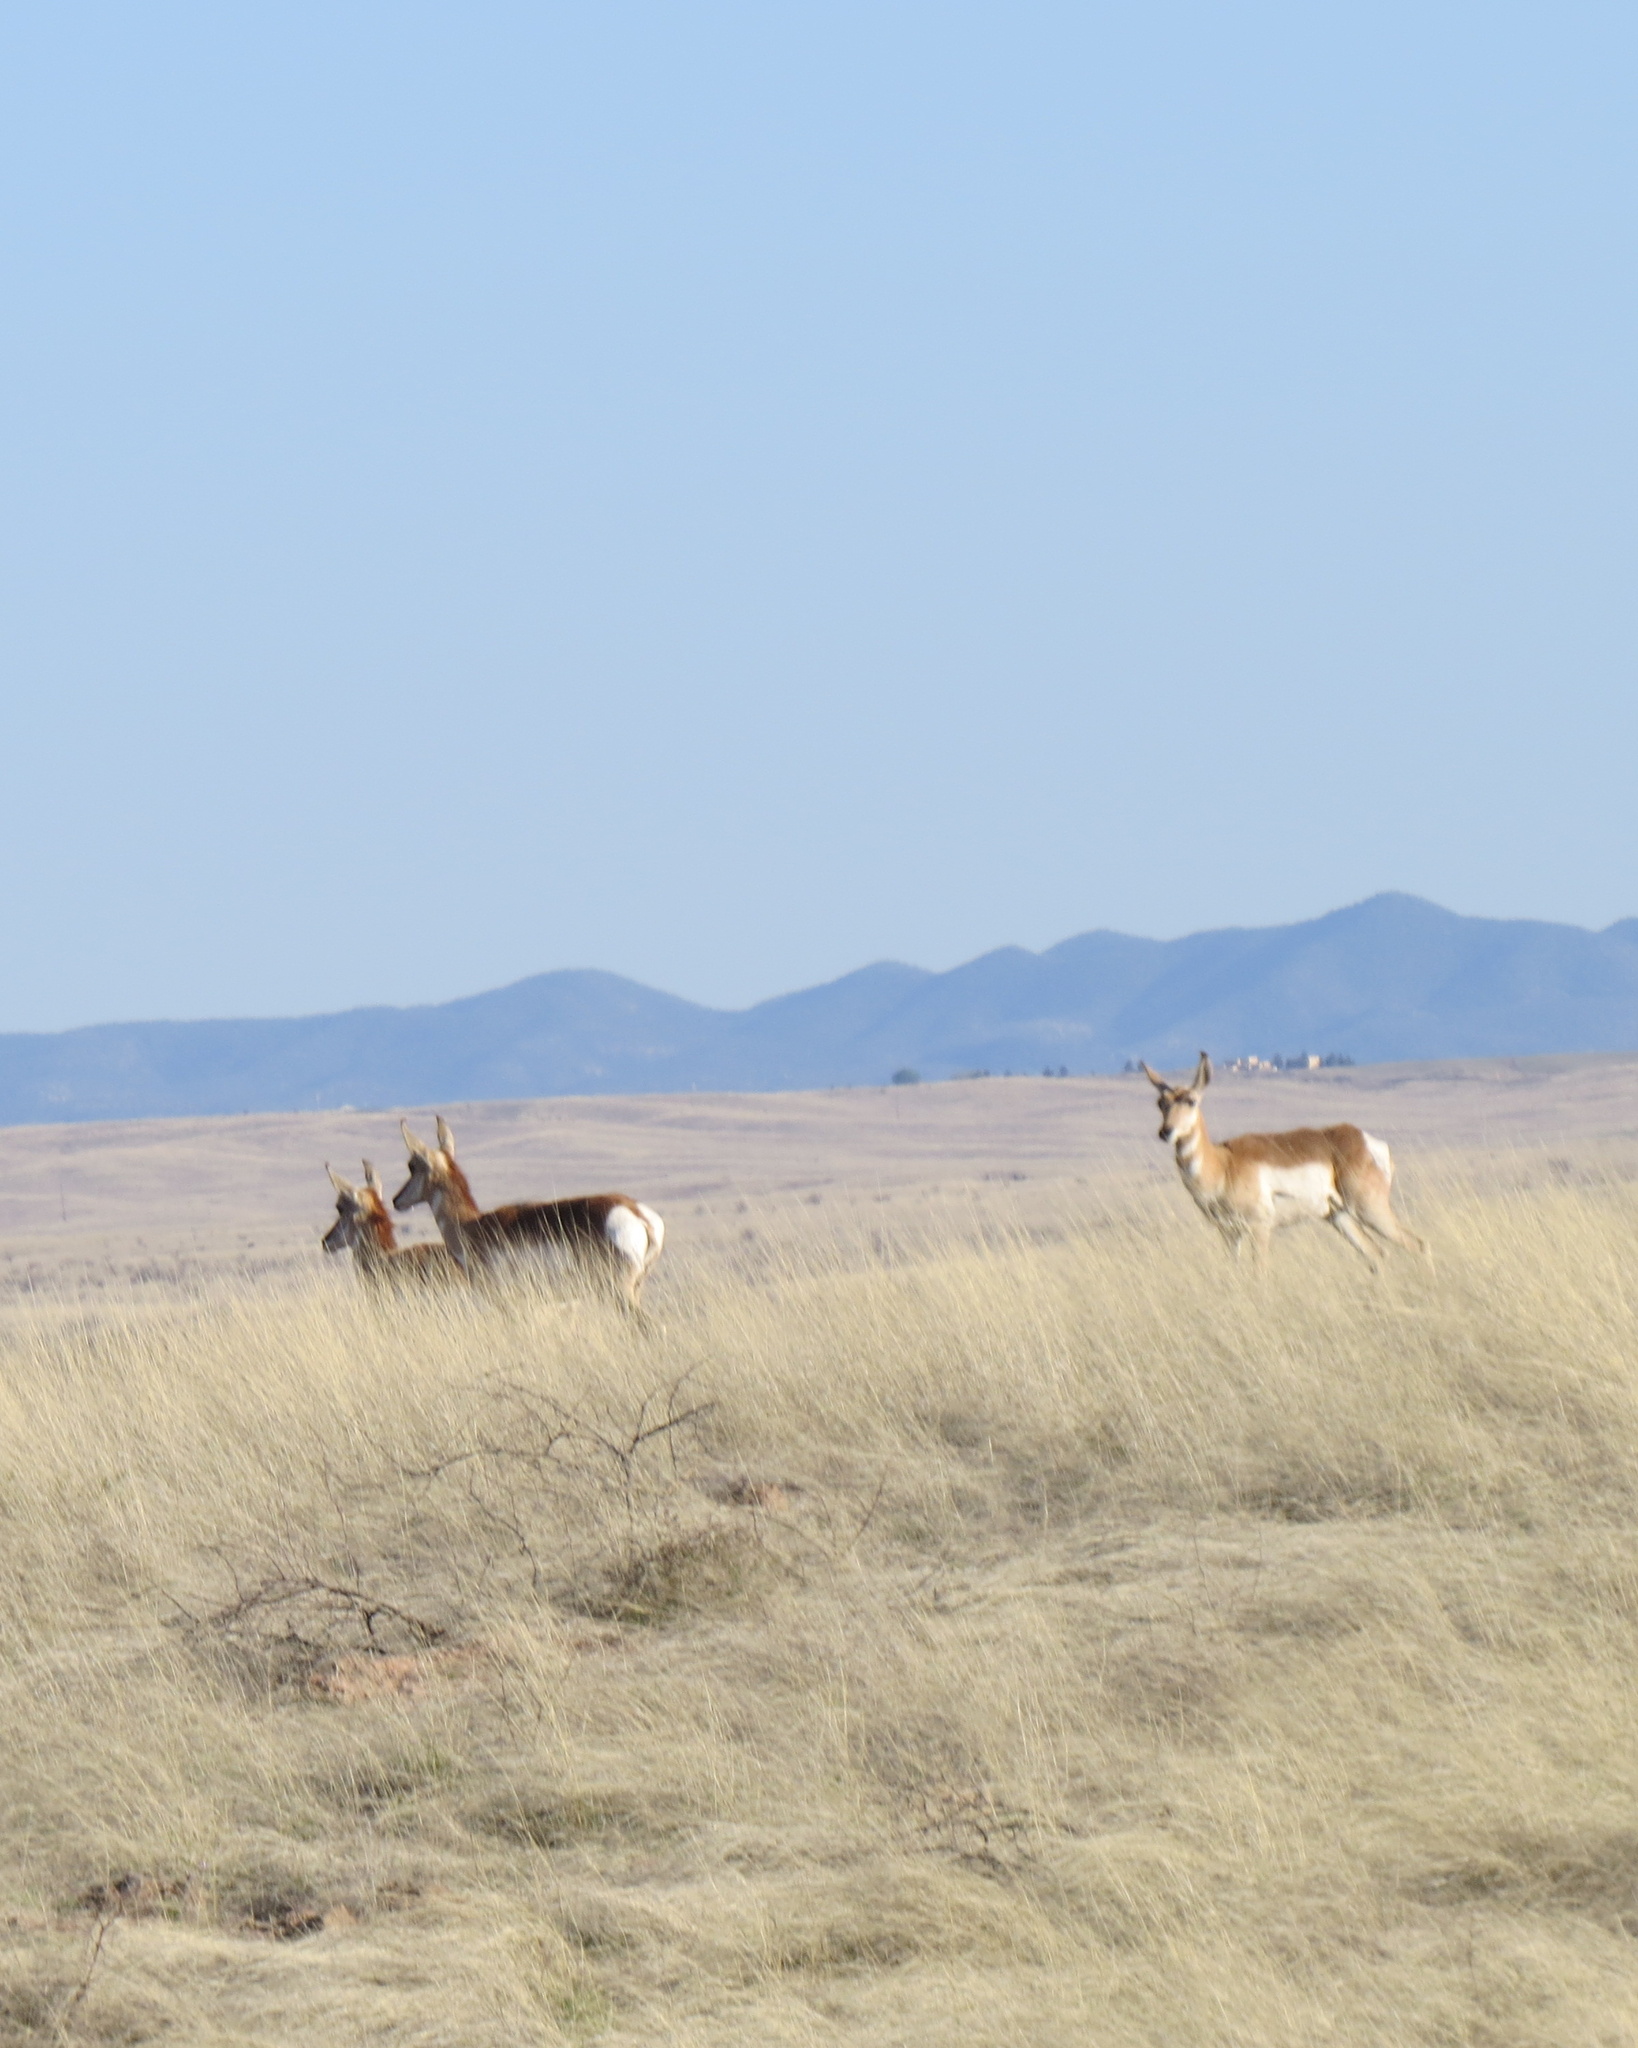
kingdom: Animalia
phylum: Chordata
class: Mammalia
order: Artiodactyla
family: Antilocapridae
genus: Antilocapra
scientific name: Antilocapra americana
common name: Pronghorn
